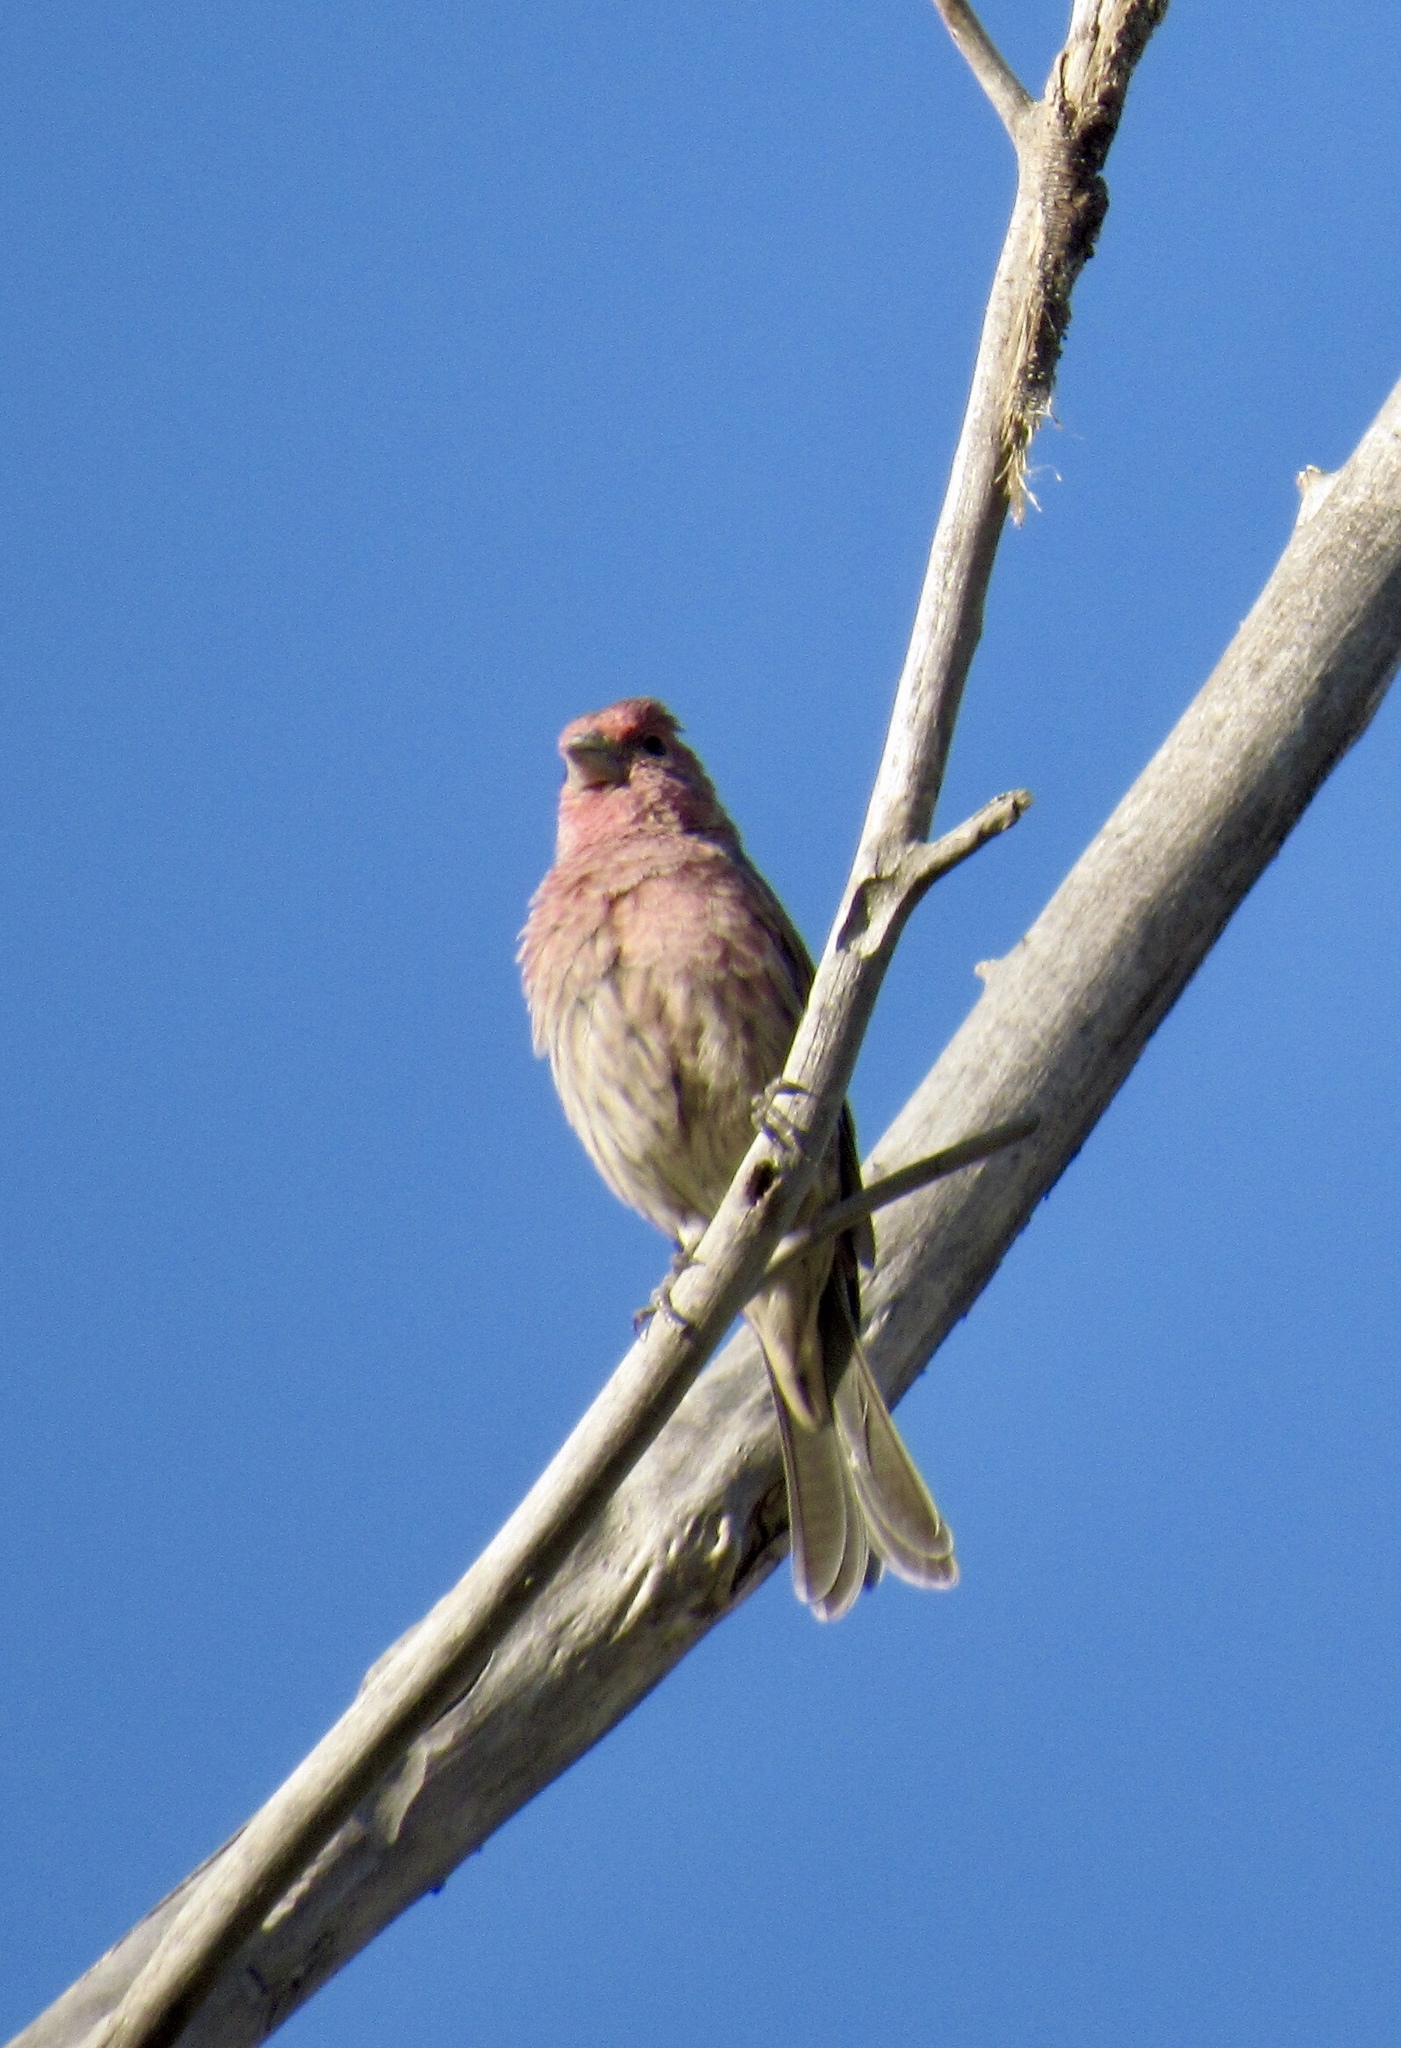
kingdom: Animalia
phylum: Chordata
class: Aves
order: Passeriformes
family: Fringillidae
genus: Haemorhous
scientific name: Haemorhous mexicanus
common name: House finch
